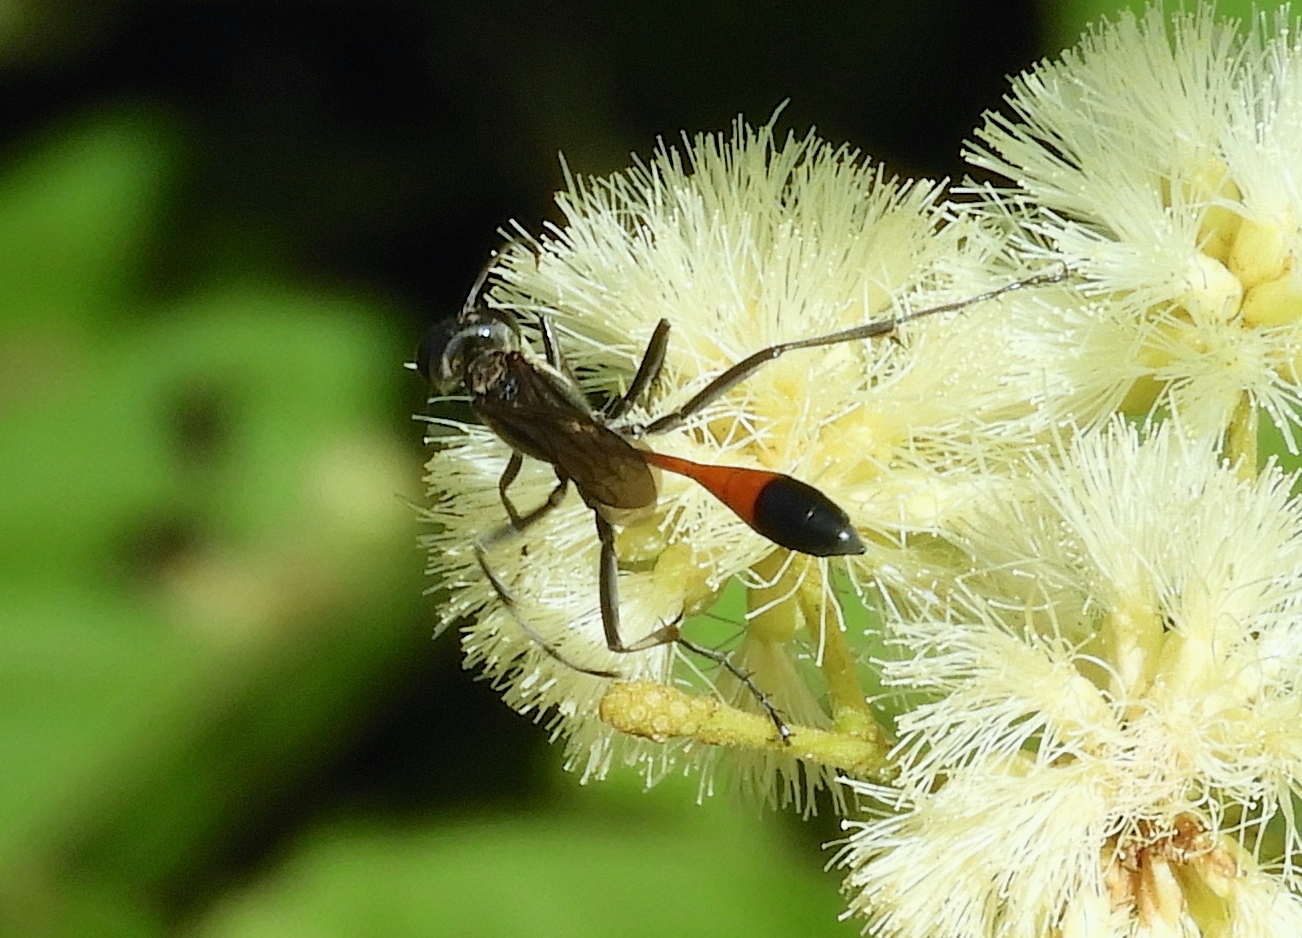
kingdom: Animalia
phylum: Arthropoda
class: Insecta
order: Hymenoptera
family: Sphecidae
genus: Ammophila
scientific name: Ammophila
